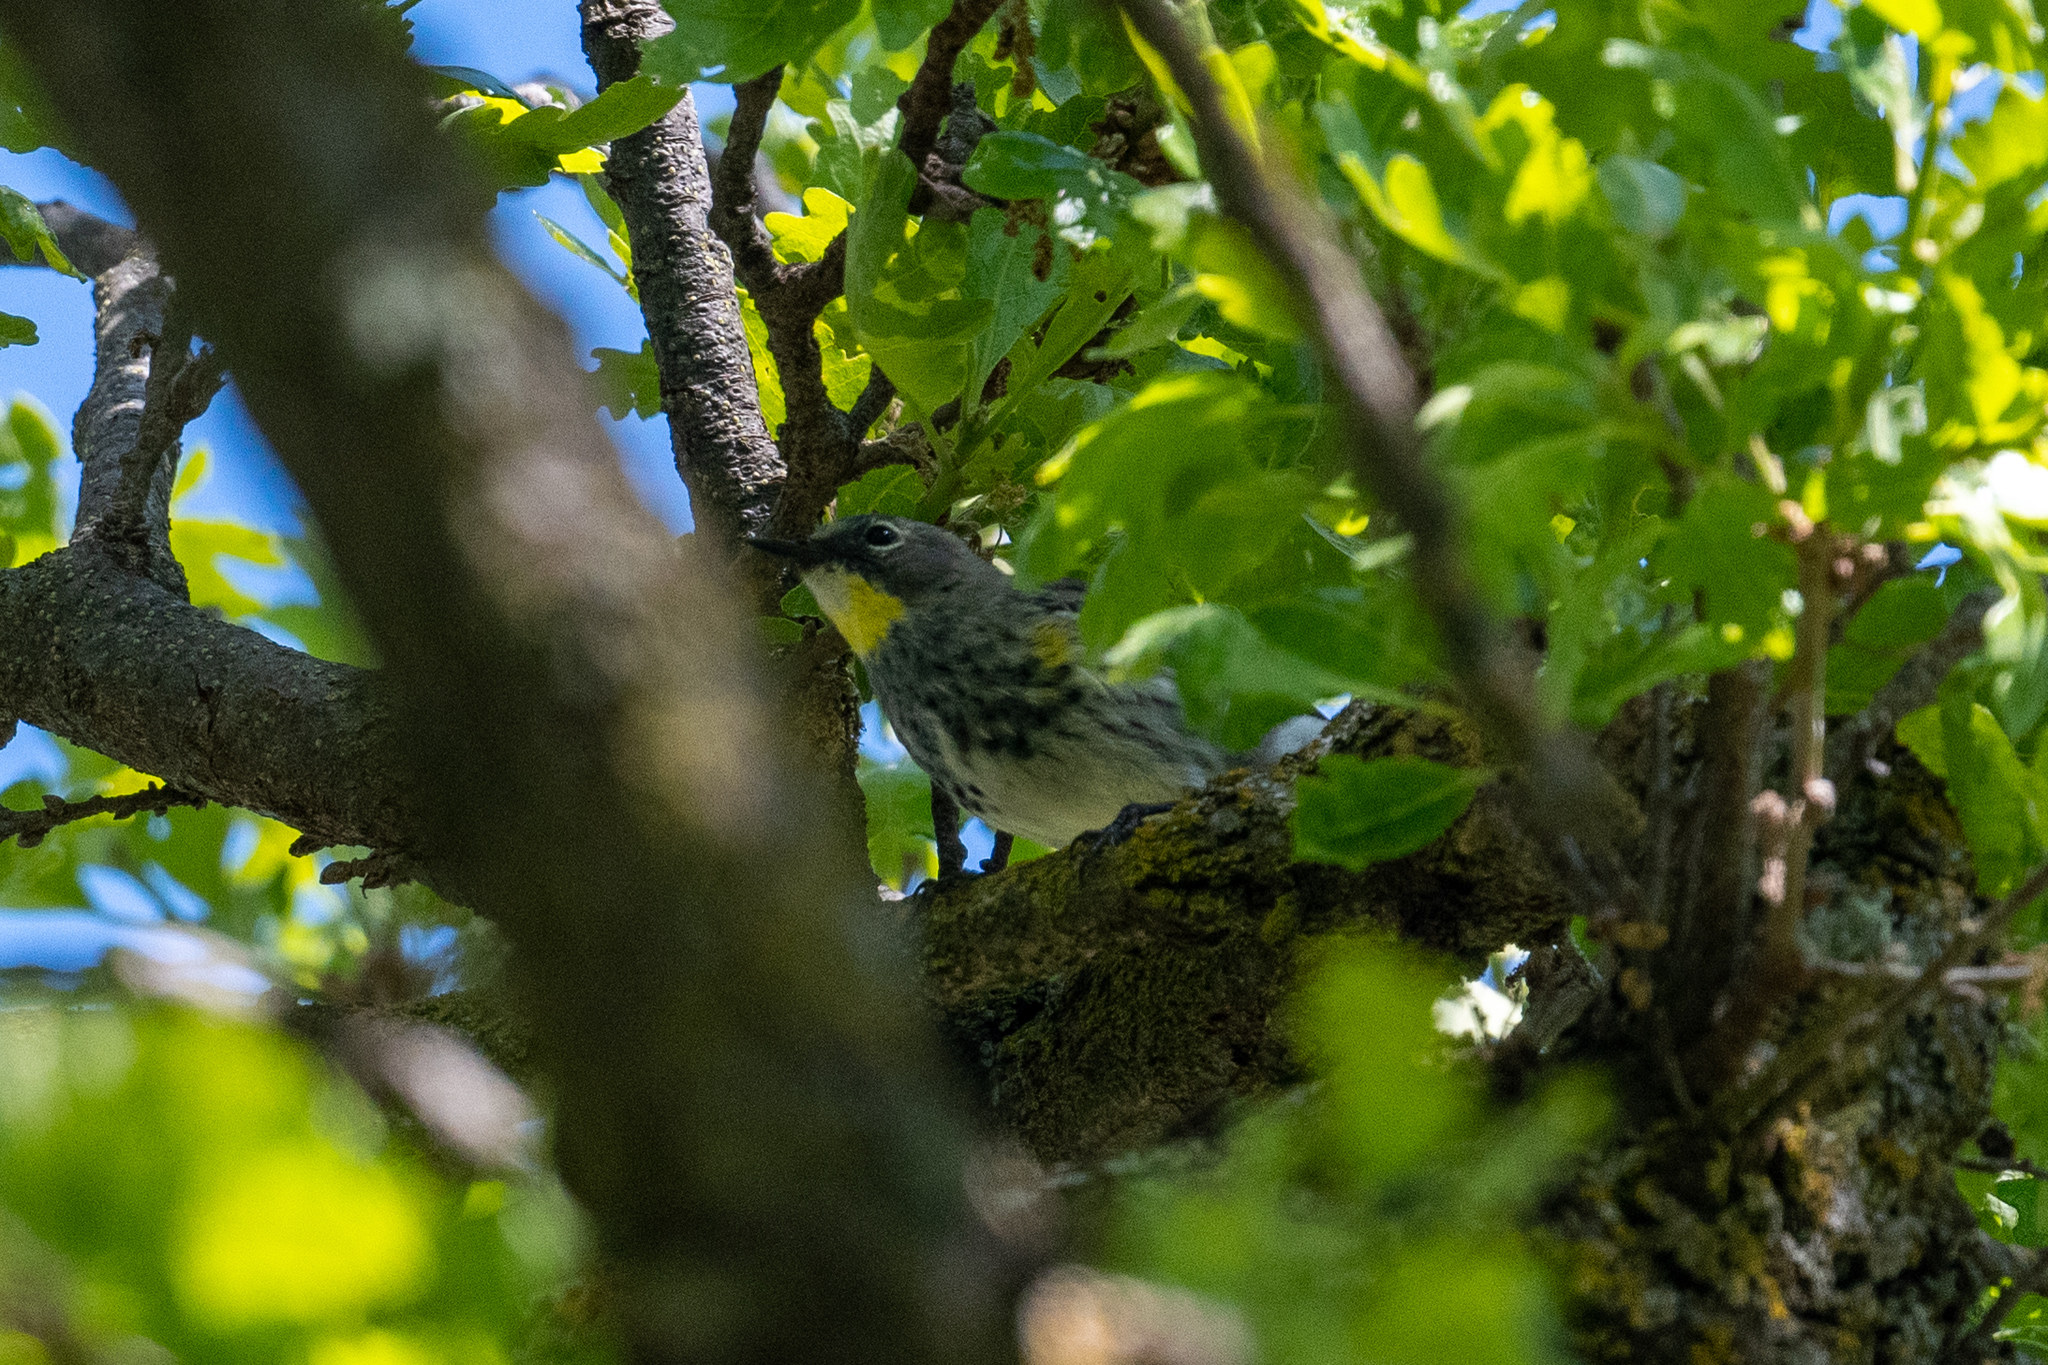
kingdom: Animalia
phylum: Chordata
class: Aves
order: Passeriformes
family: Parulidae
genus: Setophaga
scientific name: Setophaga coronata
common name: Myrtle warbler
